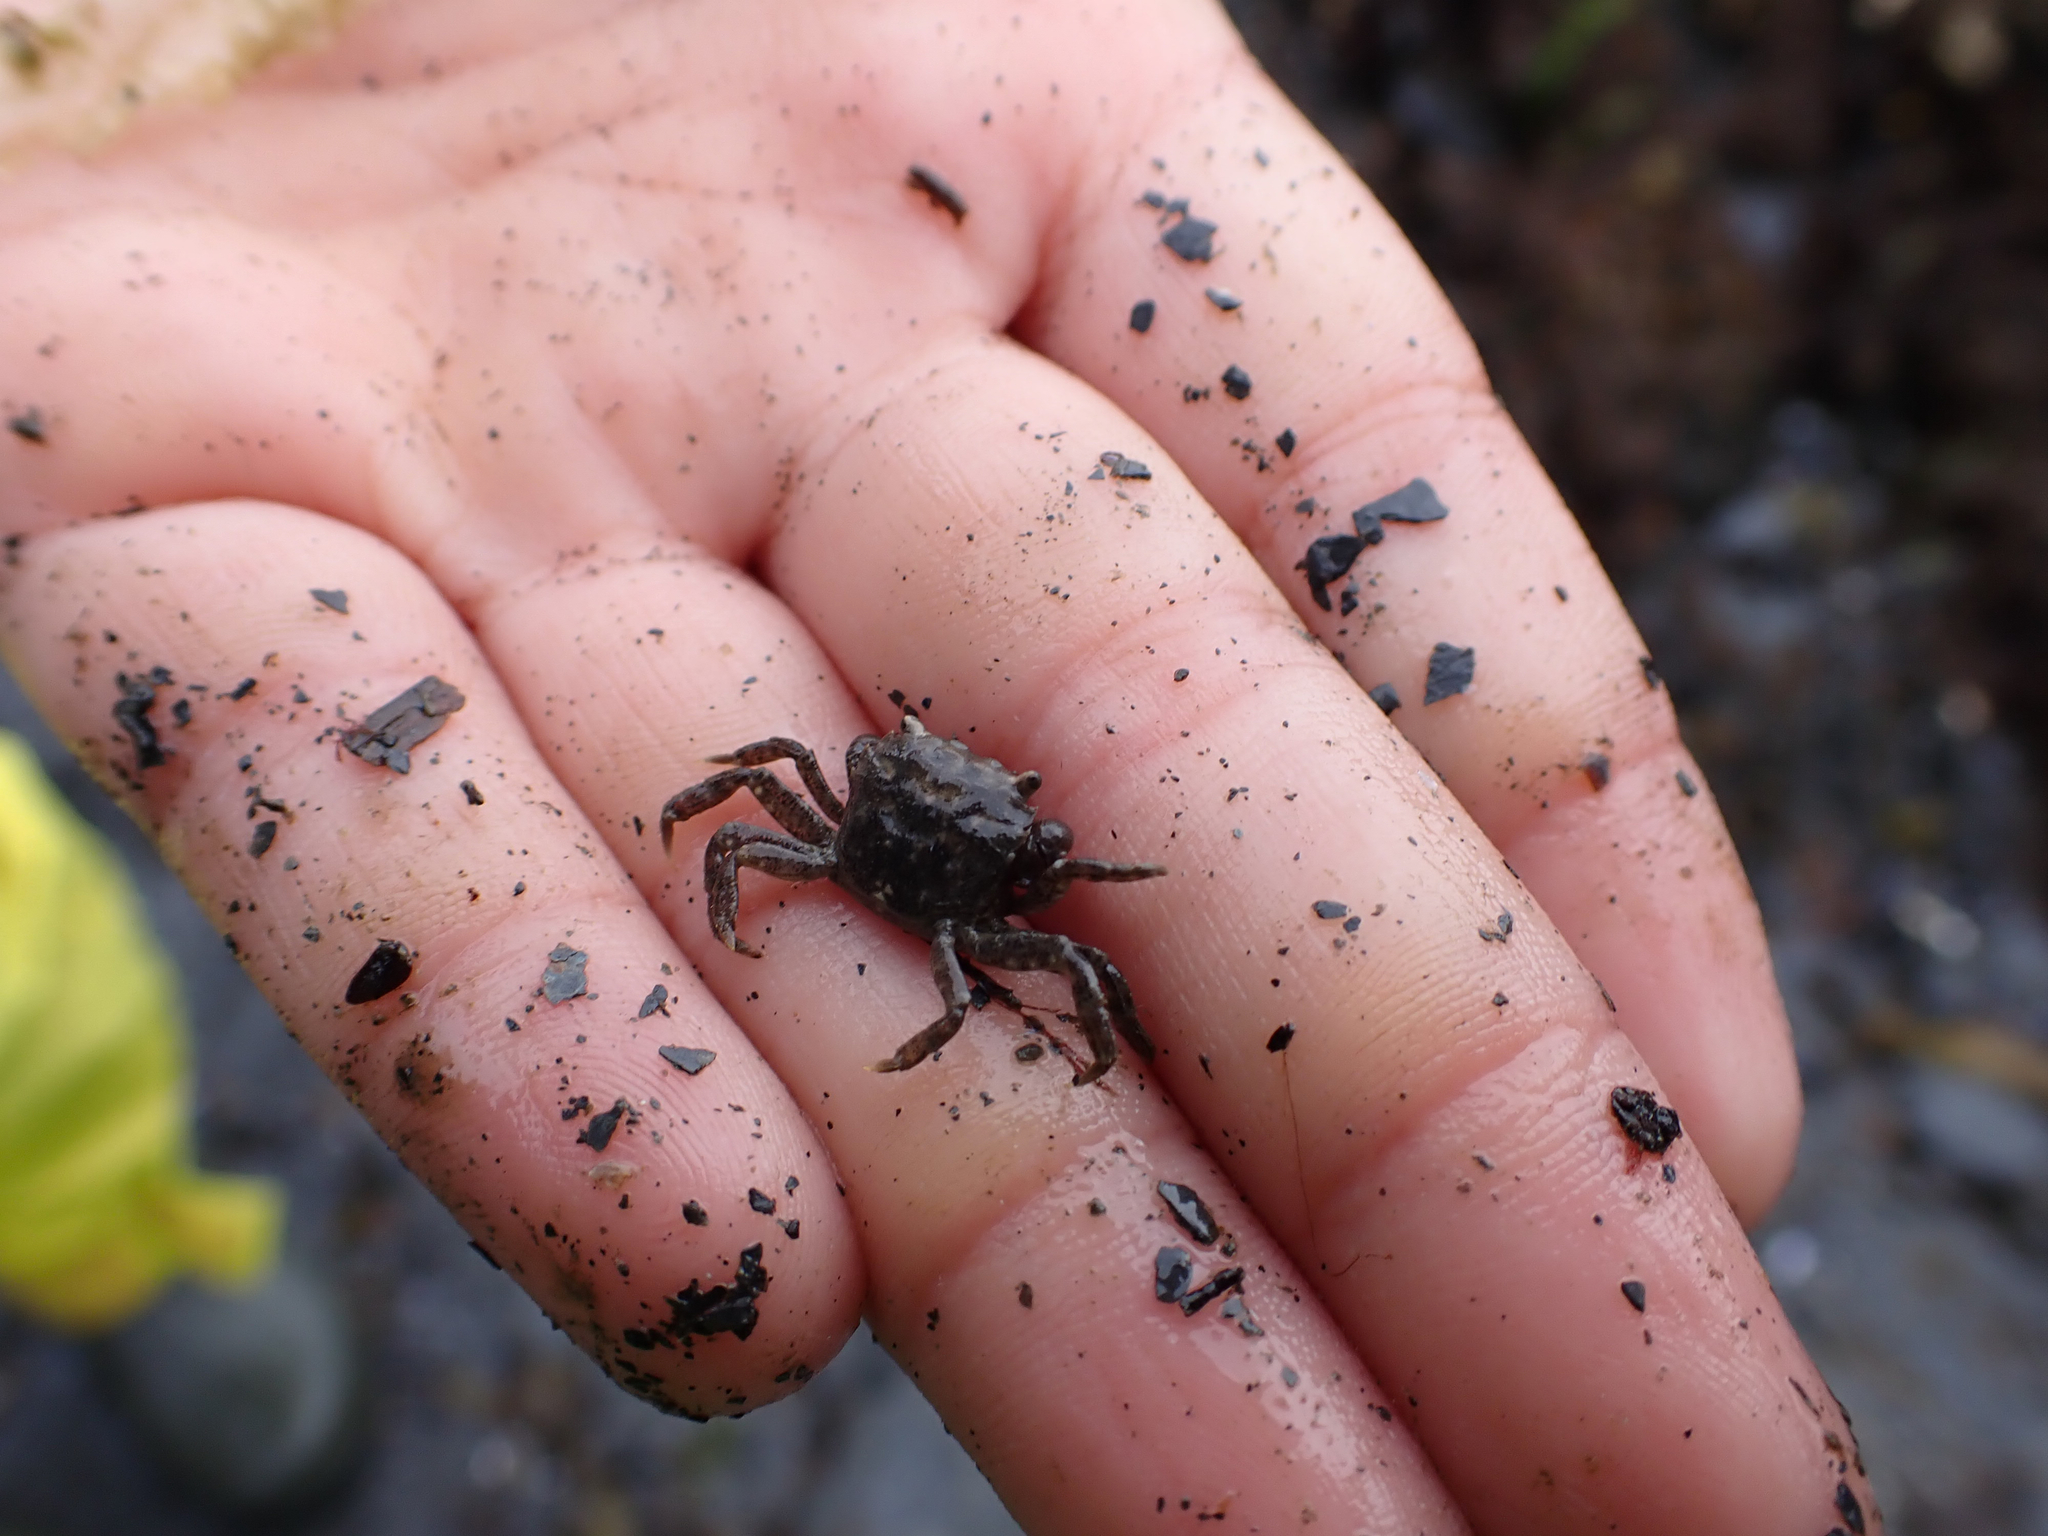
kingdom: Animalia
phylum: Arthropoda
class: Malacostraca
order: Decapoda
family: Varunidae
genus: Hemigrapsus
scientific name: Hemigrapsus oregonensis
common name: Yellow shore crab
